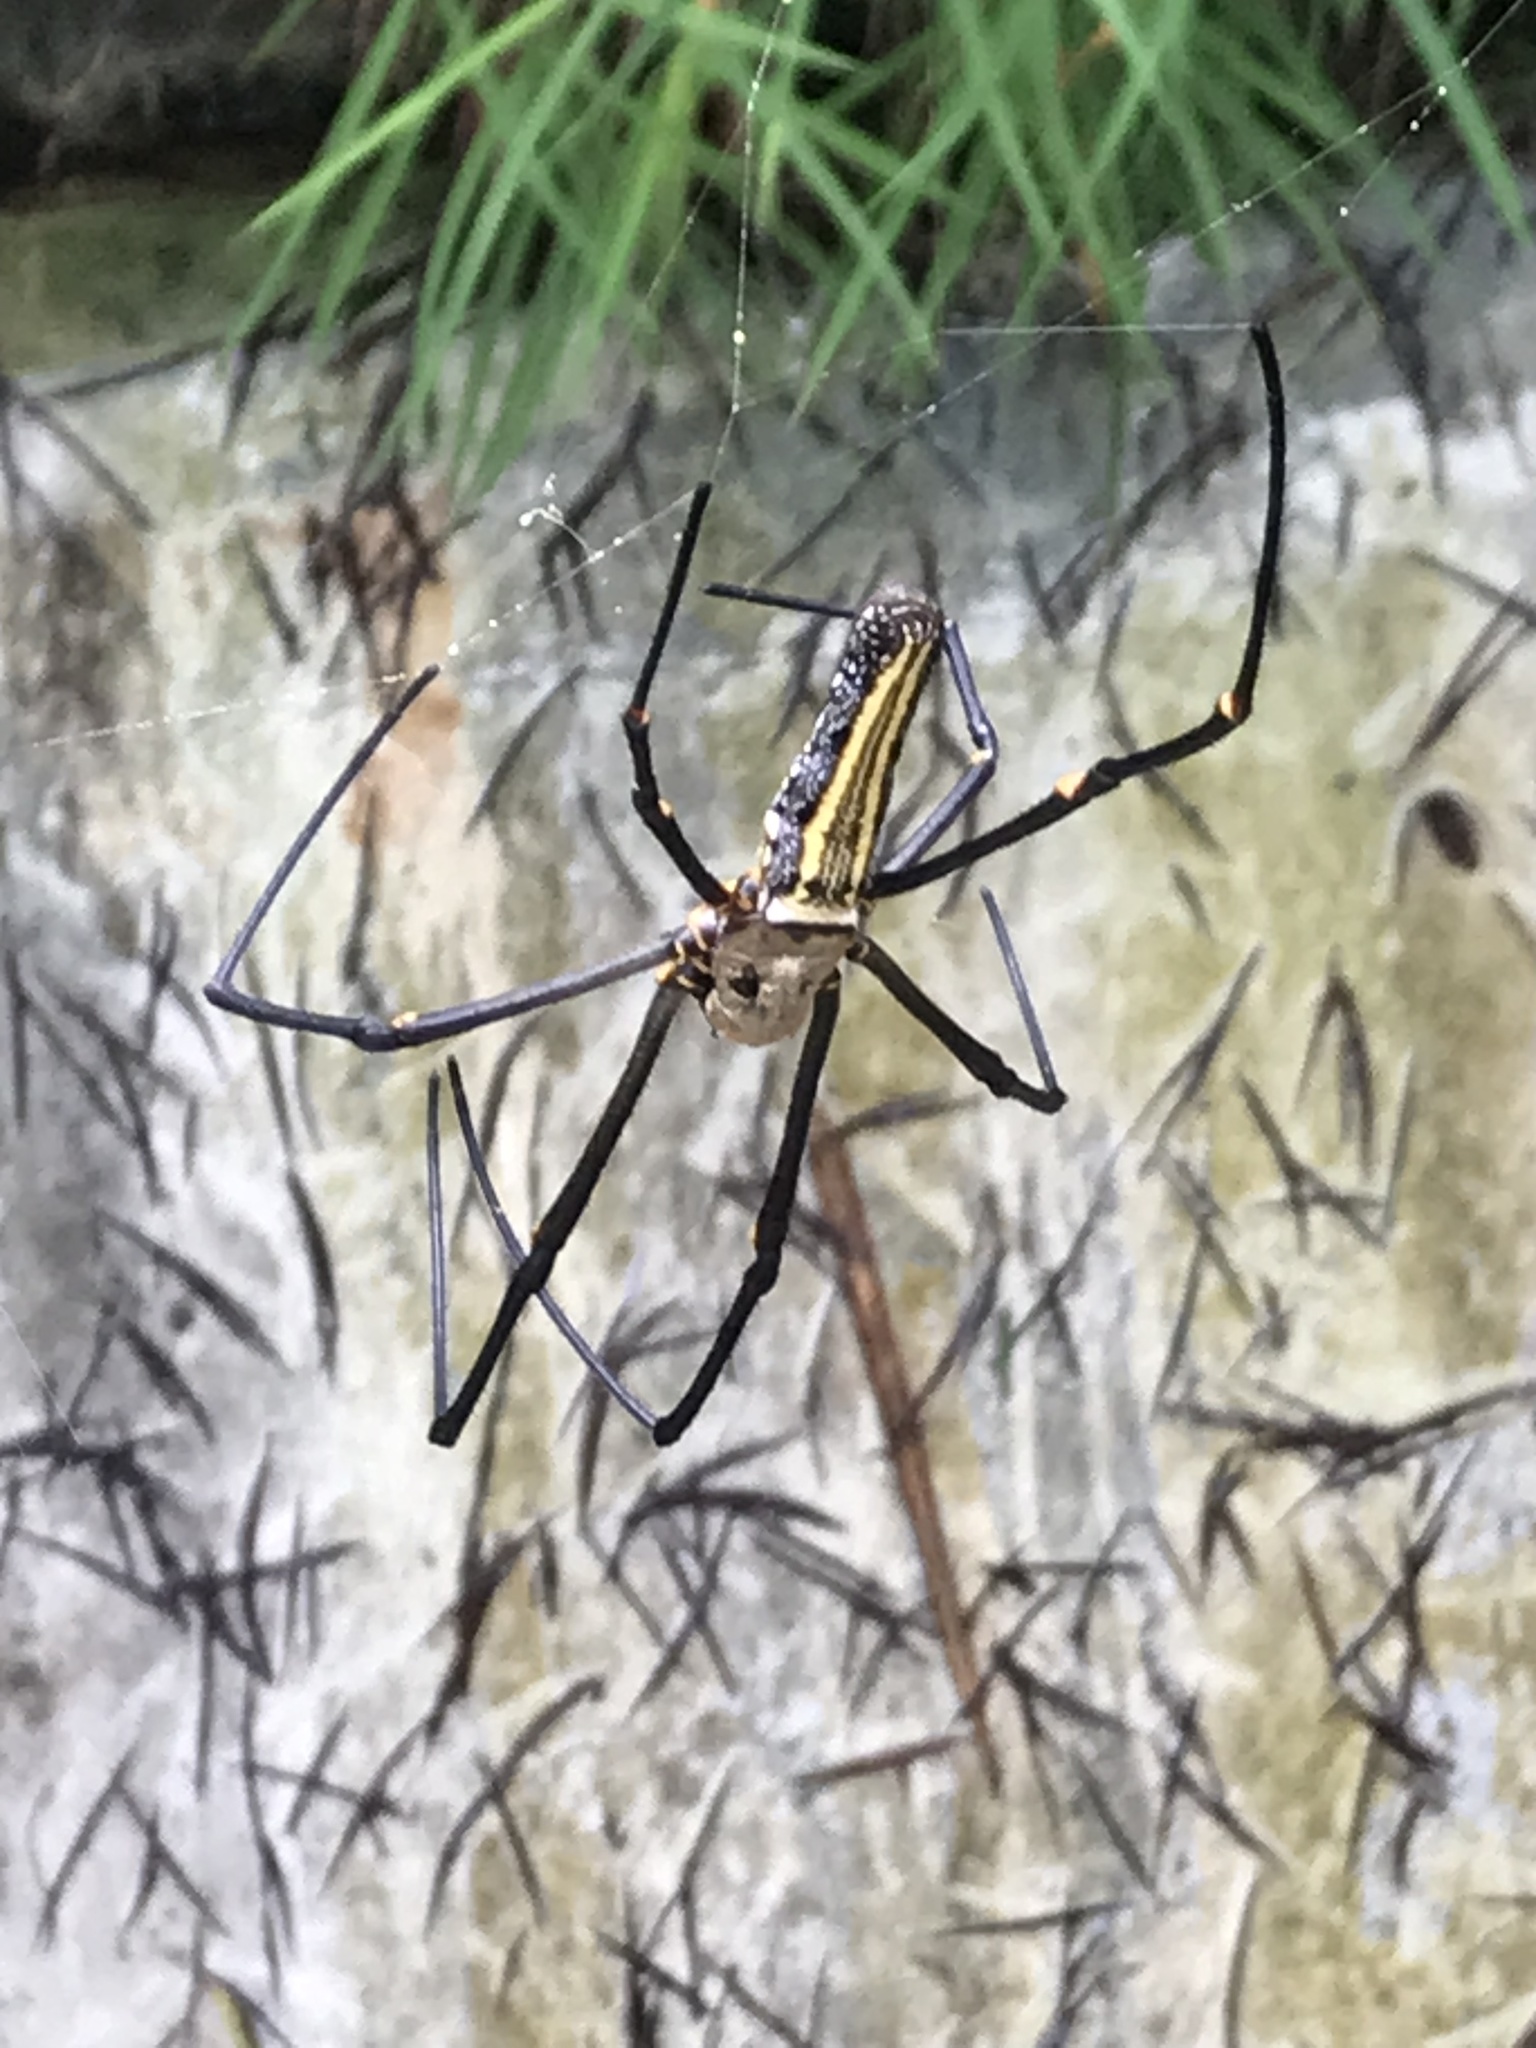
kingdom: Animalia
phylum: Arthropoda
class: Arachnida
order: Araneae
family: Araneidae
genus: Nephila
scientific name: Nephila pilipes
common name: Giant golden orb weaver
